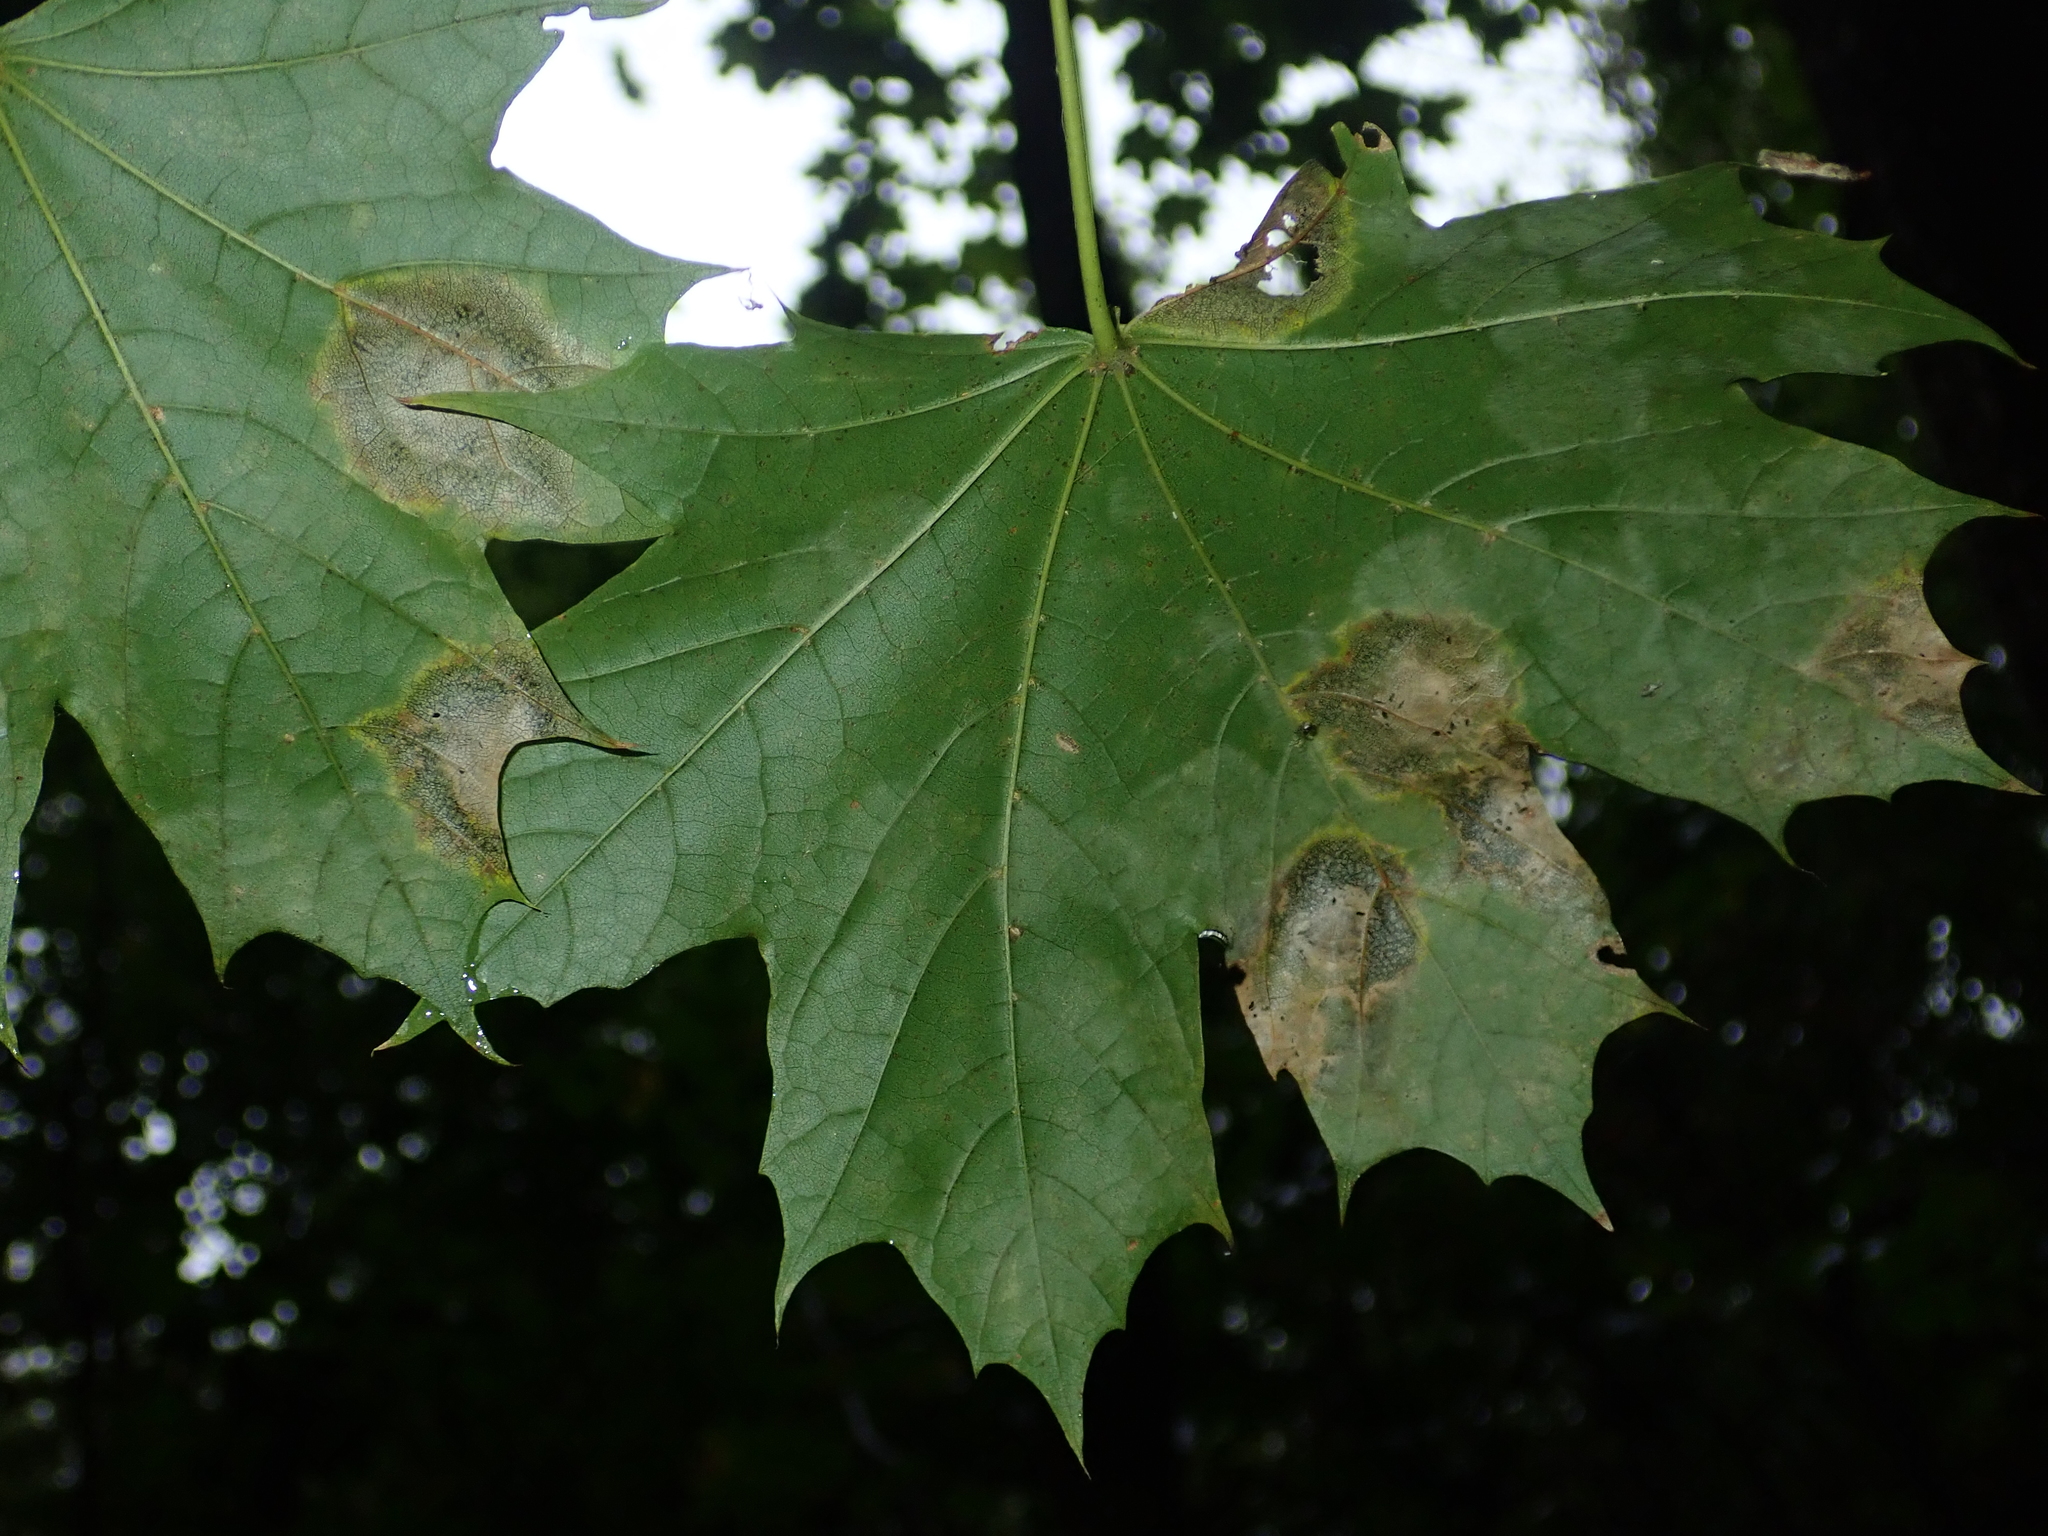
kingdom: Plantae
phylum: Tracheophyta
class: Magnoliopsida
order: Sapindales
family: Sapindaceae
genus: Acer
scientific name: Acer platanoides
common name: Norway maple
